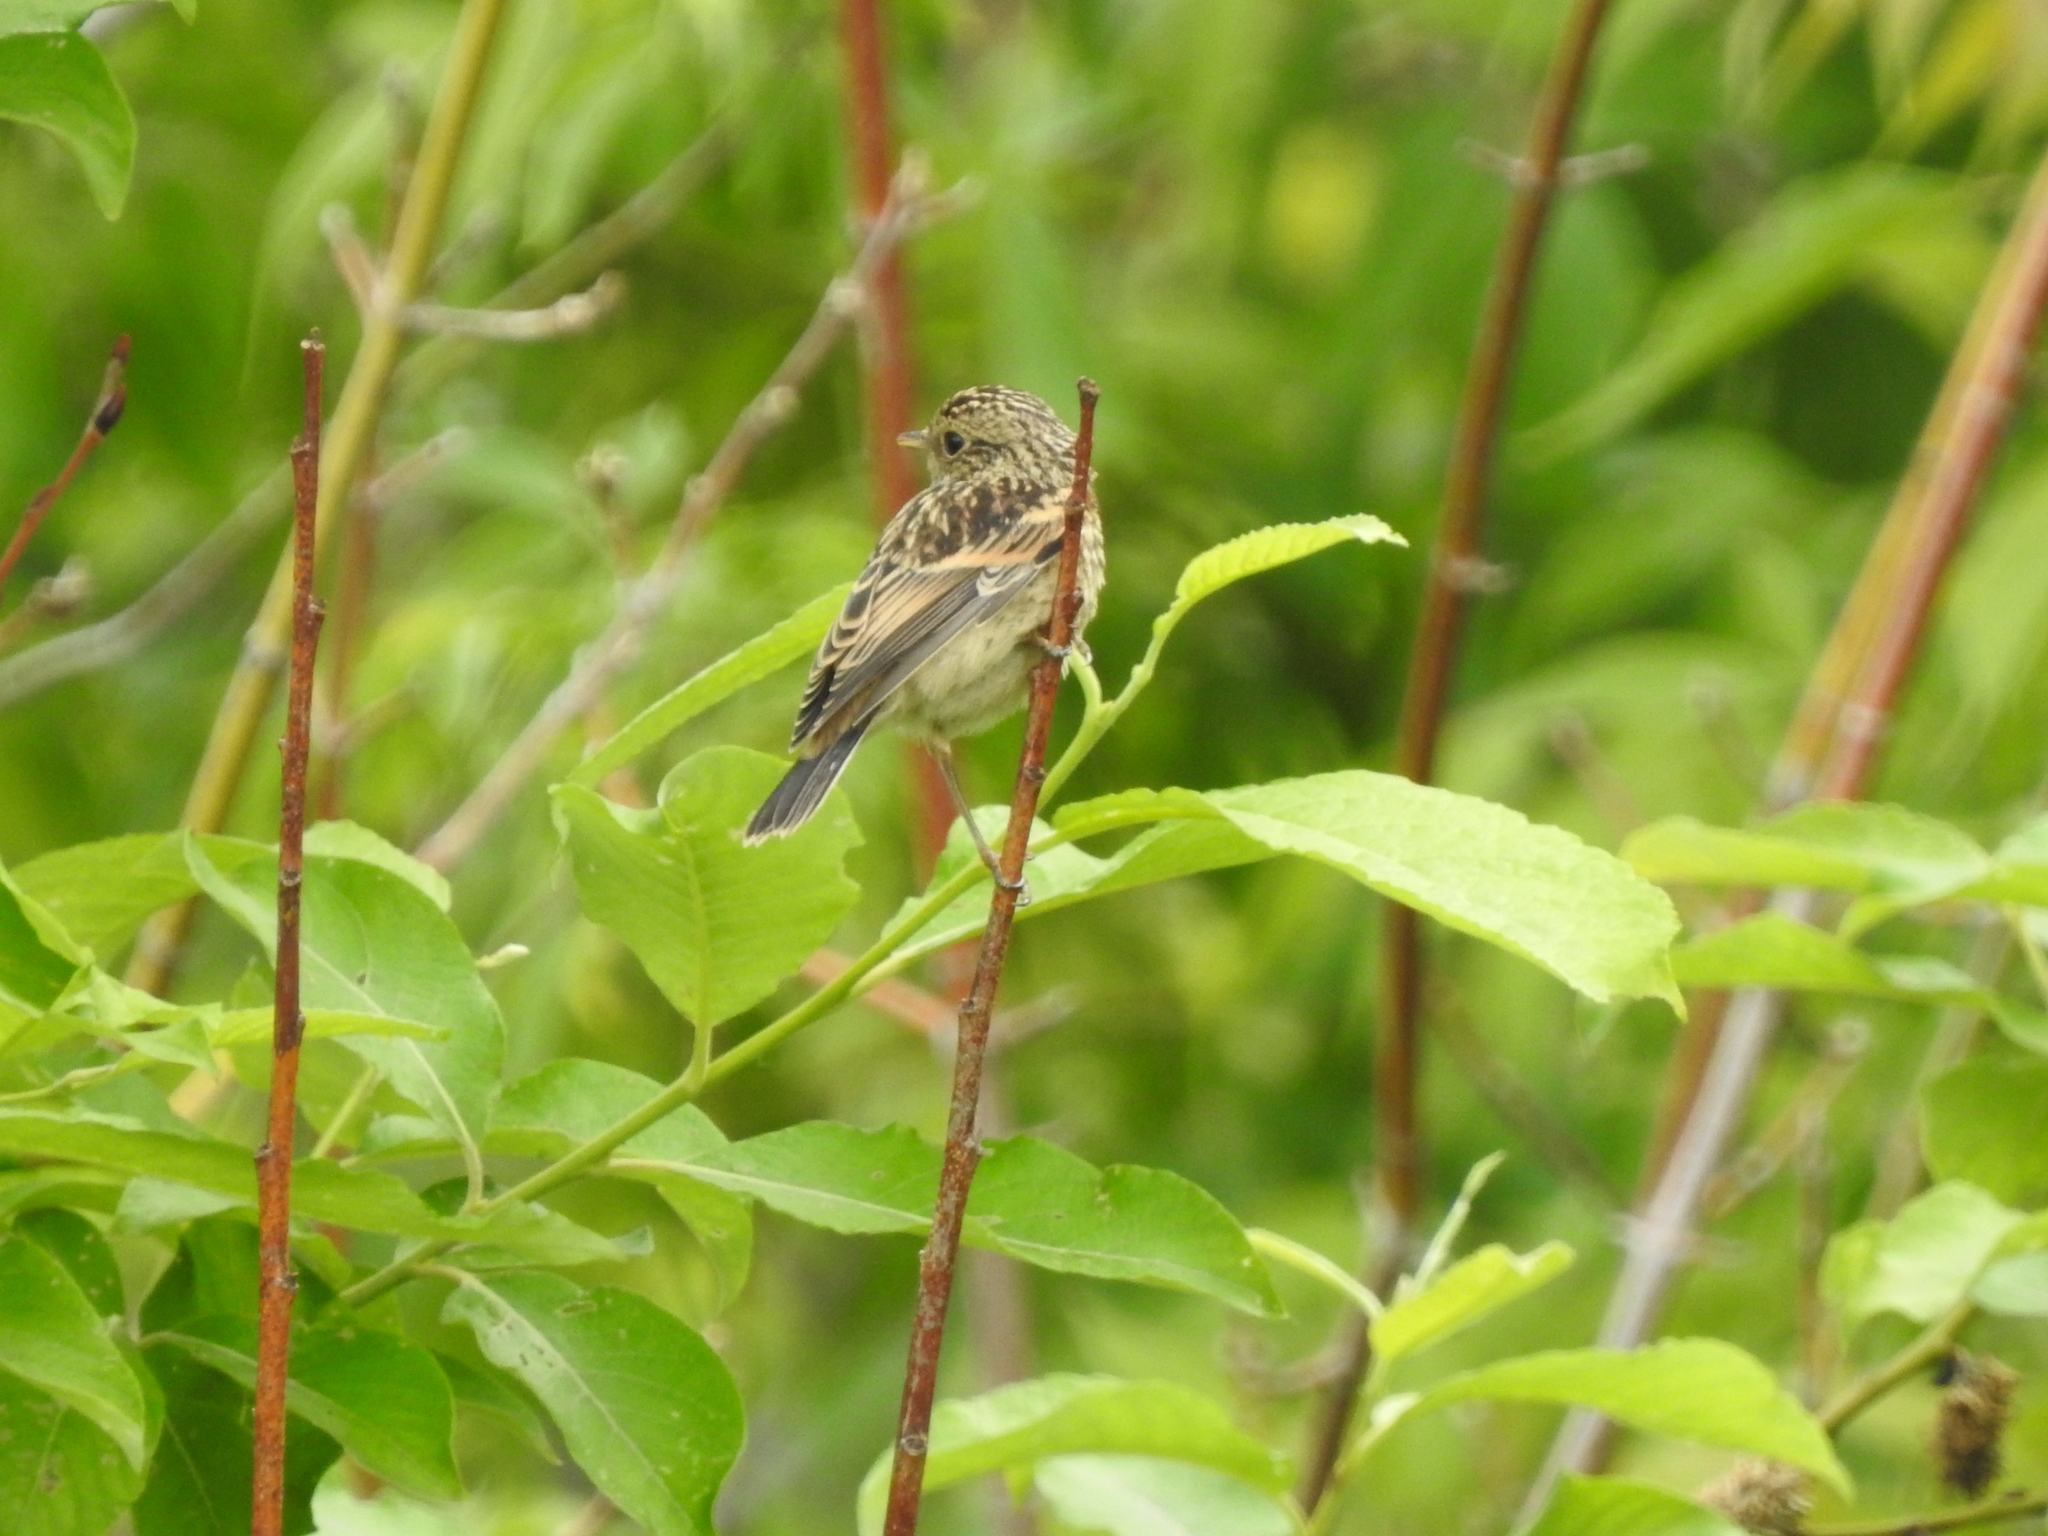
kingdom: Animalia
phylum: Chordata
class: Aves
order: Passeriformes
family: Muscicapidae
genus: Saxicola
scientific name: Saxicola maurus
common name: Siberian stonechat
